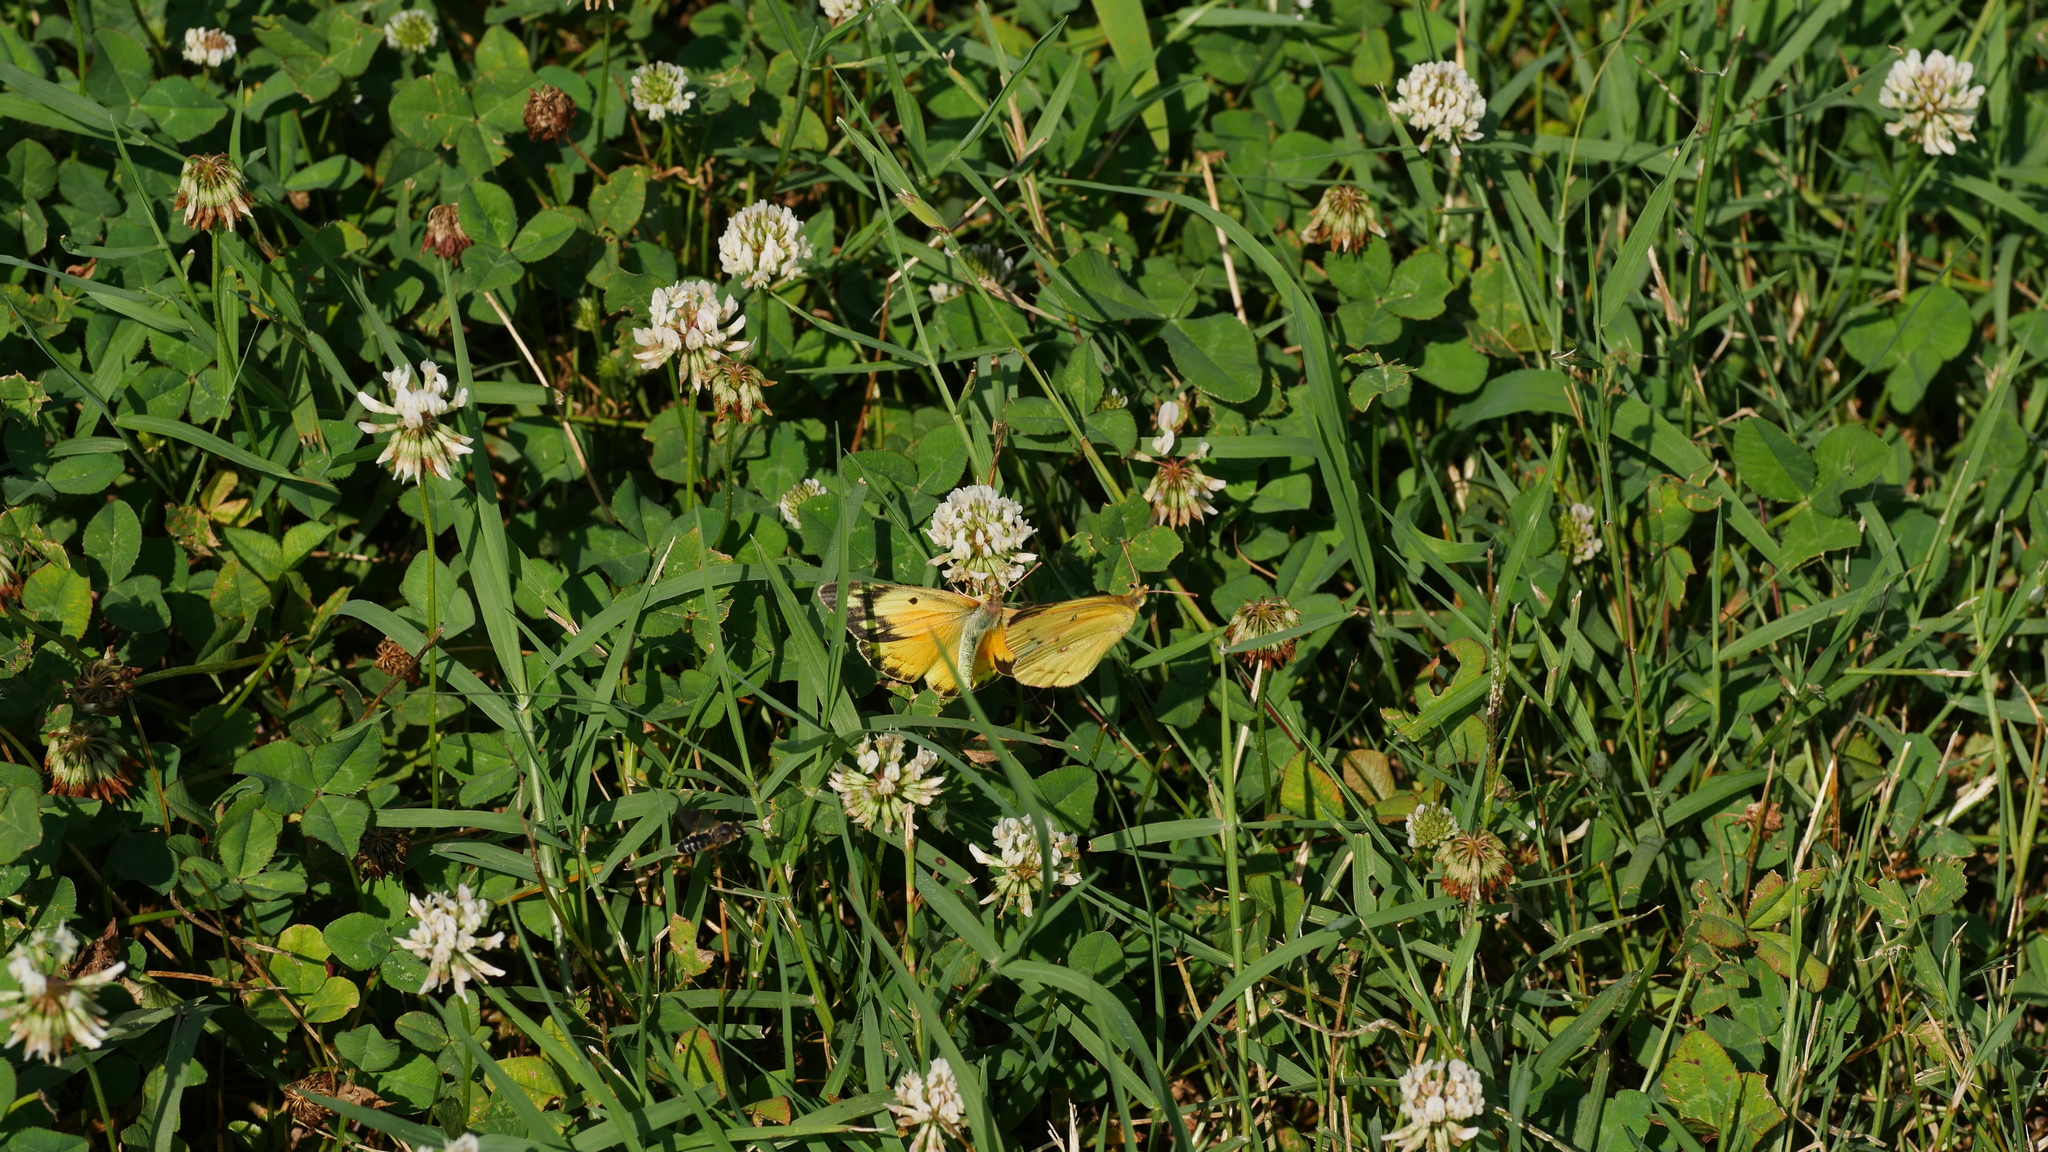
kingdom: Animalia
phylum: Arthropoda
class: Insecta
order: Lepidoptera
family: Pieridae
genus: Colias
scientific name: Colias eurytheme
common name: Alfalfa butterfly
